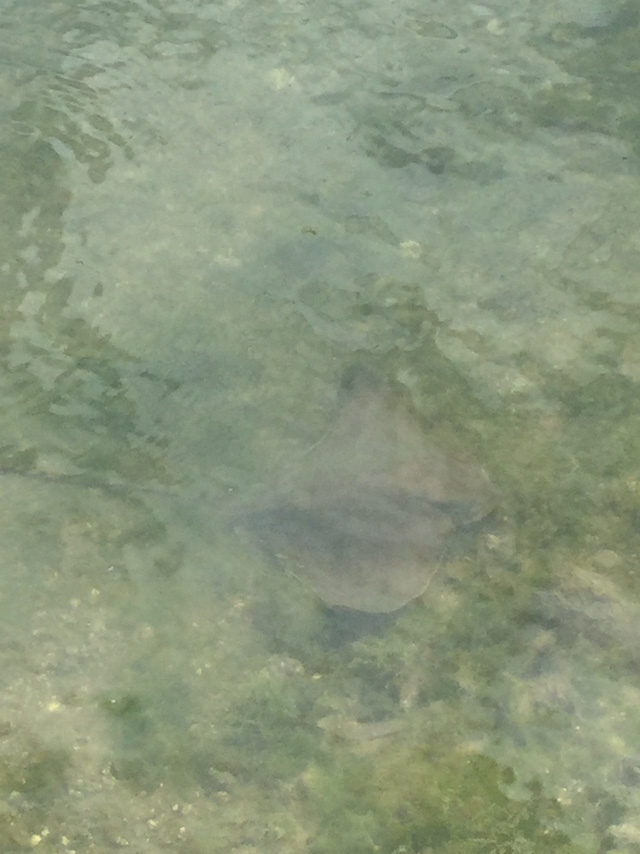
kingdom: Animalia
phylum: Chordata
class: Elasmobranchii
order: Myliobatiformes
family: Myliobatidae
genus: Myliobatis
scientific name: Myliobatis californica
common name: Bat ray
